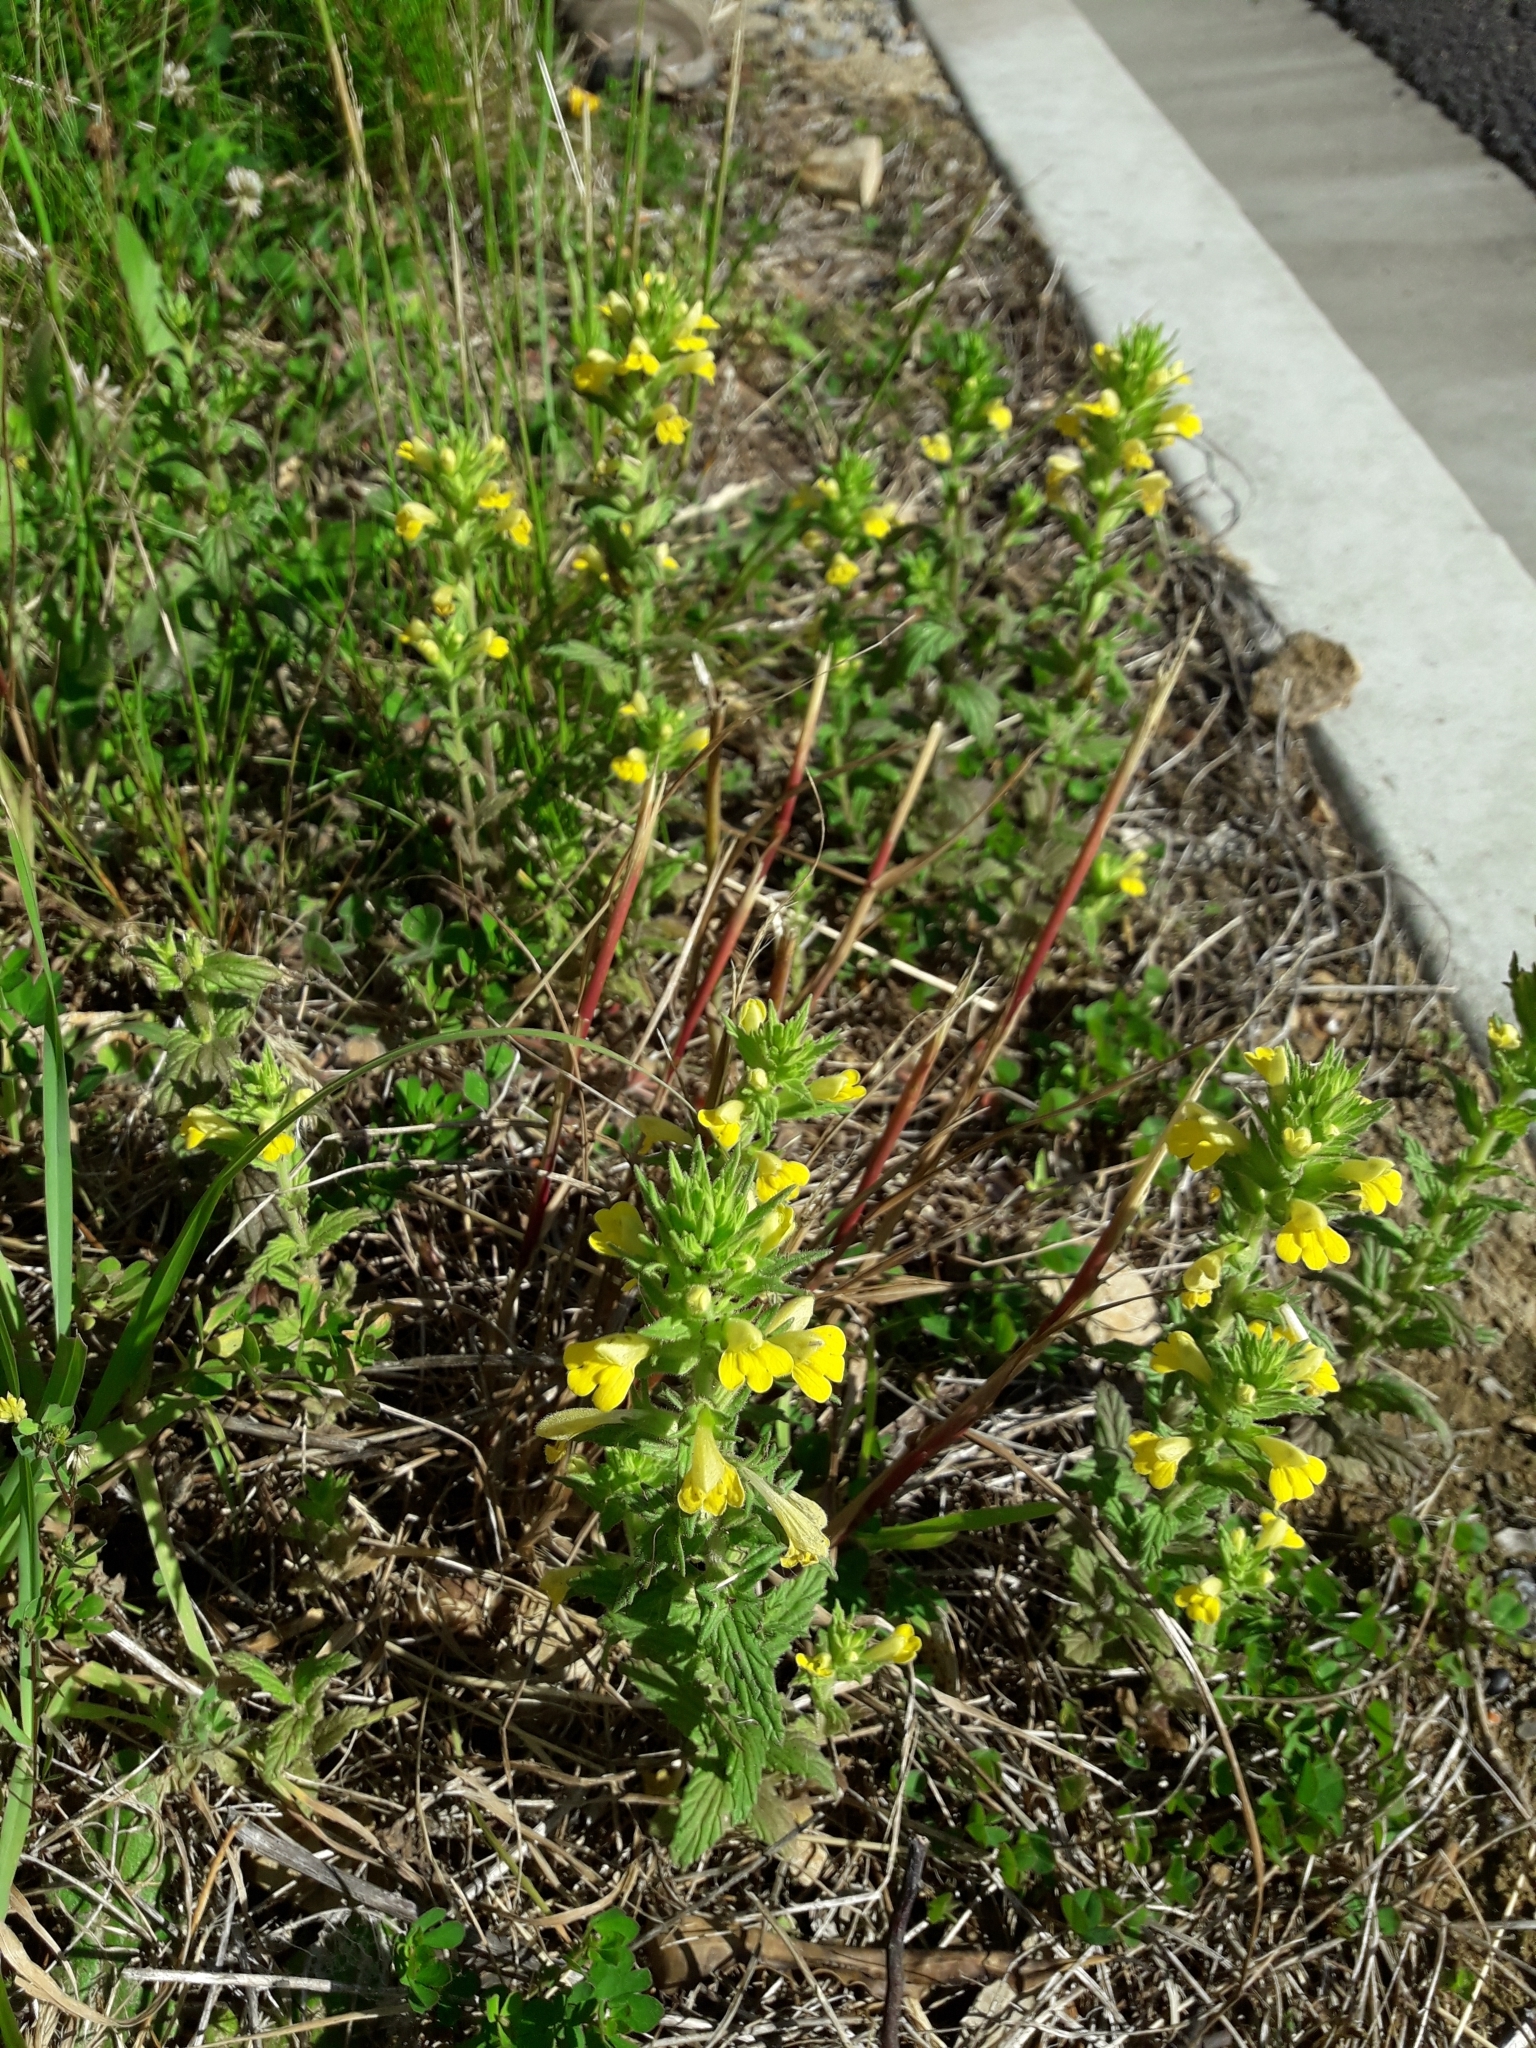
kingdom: Plantae
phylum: Tracheophyta
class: Magnoliopsida
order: Lamiales
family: Orobanchaceae
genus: Bellardia
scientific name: Bellardia viscosa
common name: Sticky parentucellia
